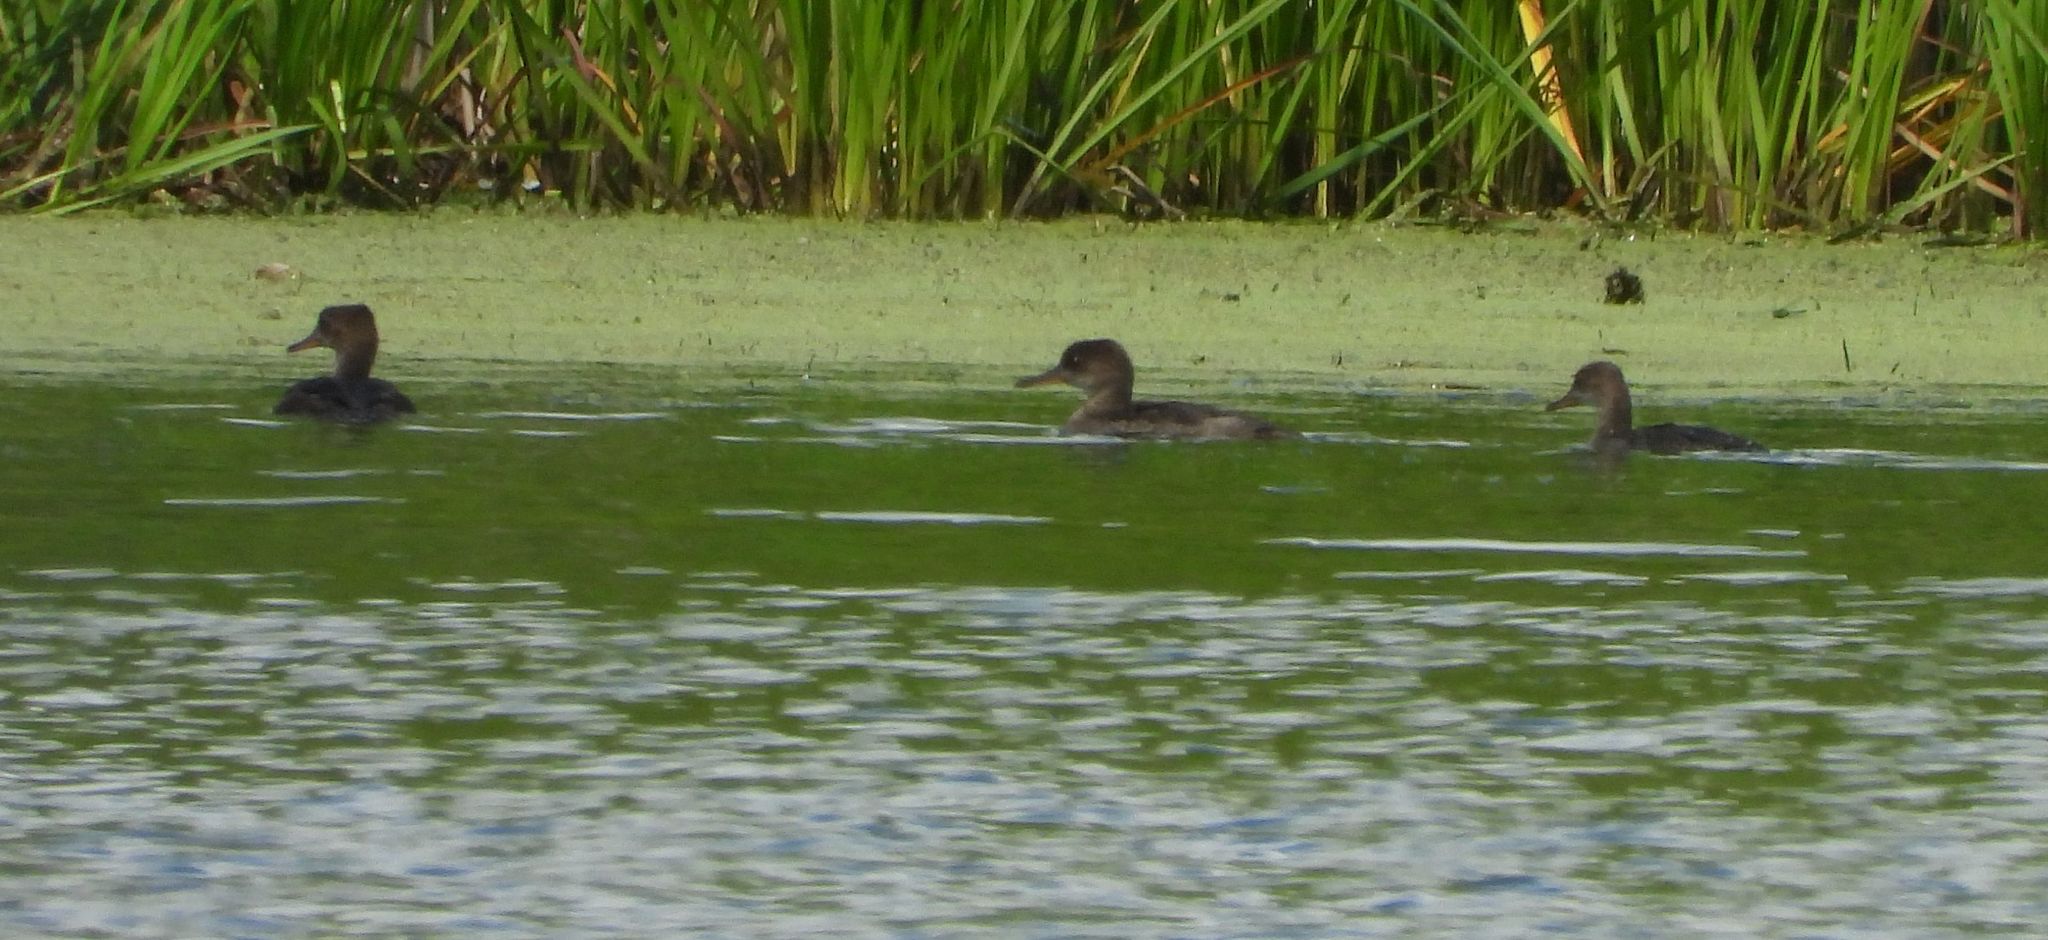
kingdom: Animalia
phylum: Chordata
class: Aves
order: Anseriformes
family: Anatidae
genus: Lophodytes
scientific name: Lophodytes cucullatus
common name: Hooded merganser
